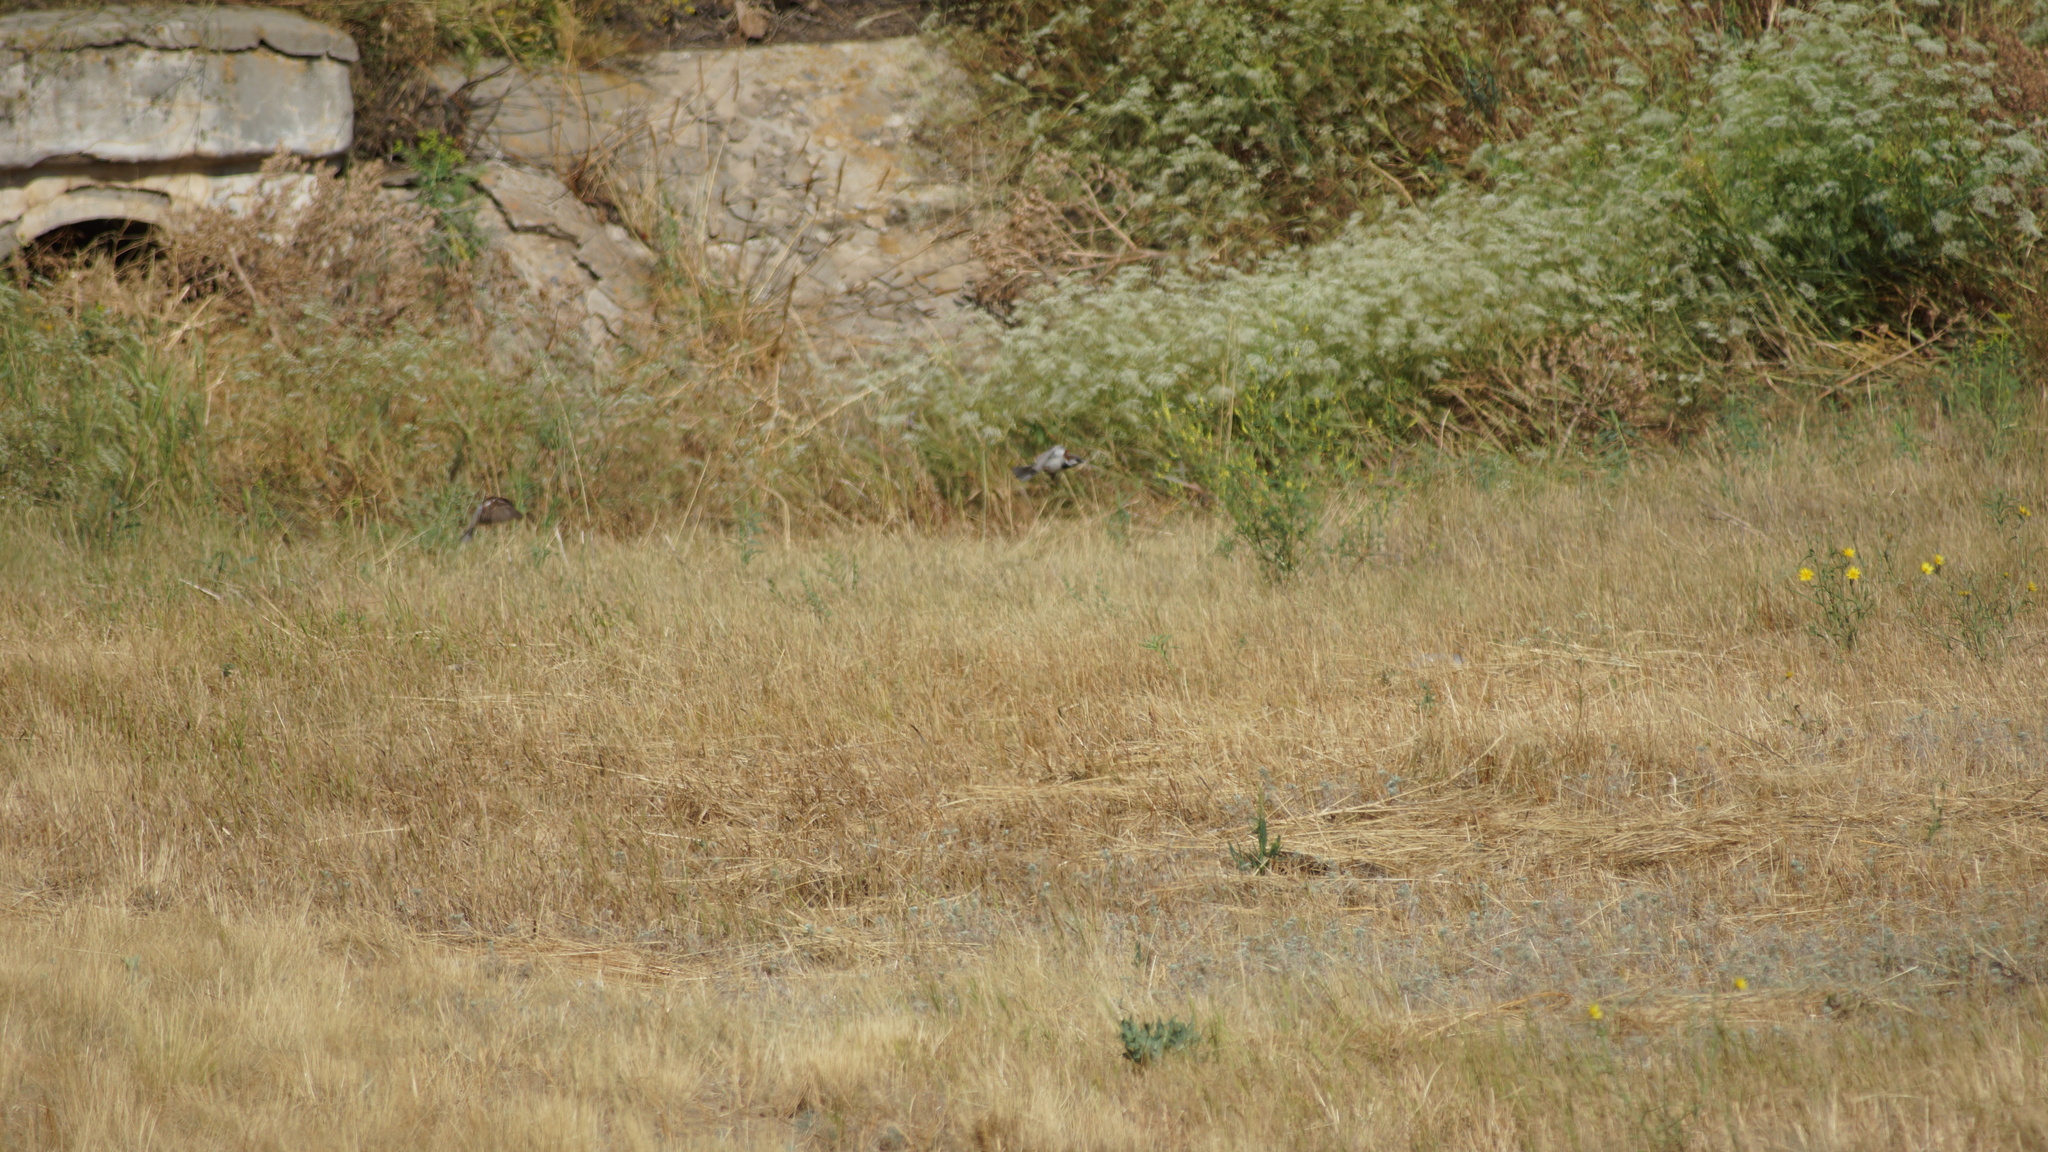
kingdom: Animalia
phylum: Chordata
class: Aves
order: Passeriformes
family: Passeridae
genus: Passer
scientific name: Passer domesticus
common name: House sparrow
